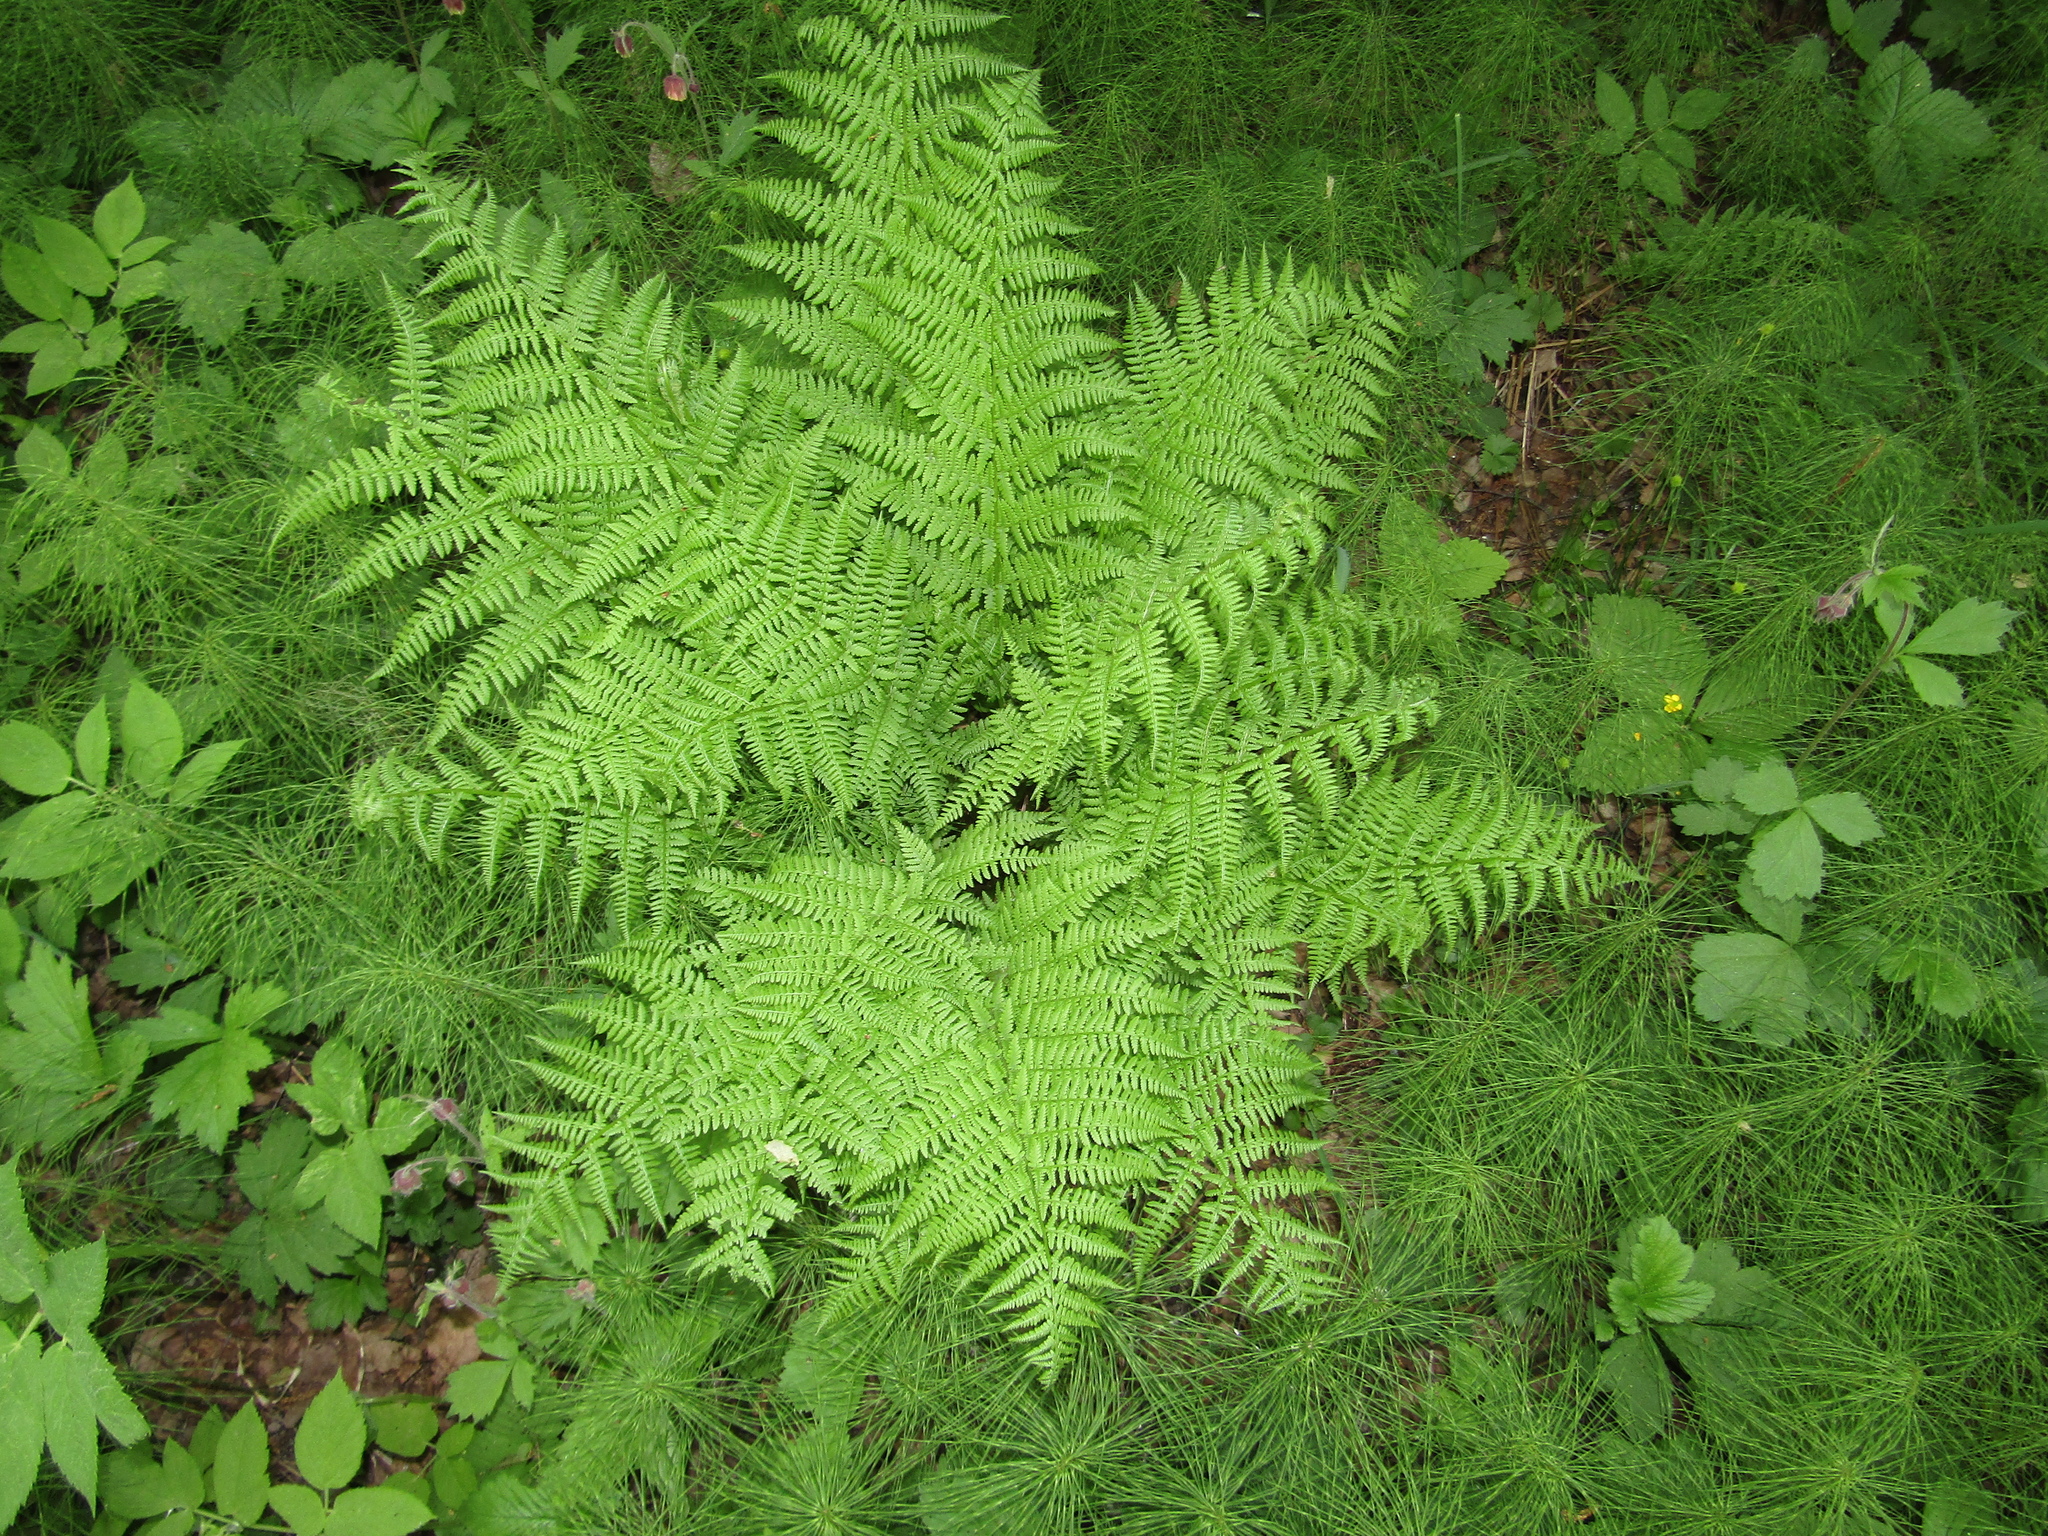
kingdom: Plantae
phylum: Tracheophyta
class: Polypodiopsida
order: Polypodiales
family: Athyriaceae
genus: Athyrium
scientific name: Athyrium filix-femina
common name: Lady fern
